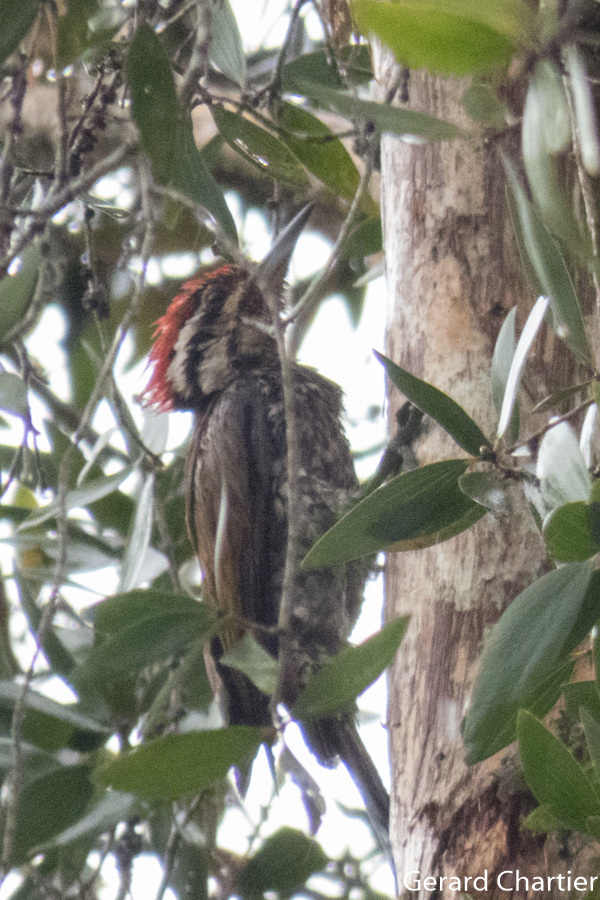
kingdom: Animalia
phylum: Chordata
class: Aves
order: Piciformes
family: Picidae
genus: Dinopium
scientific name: Dinopium javanense
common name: Common flameback
